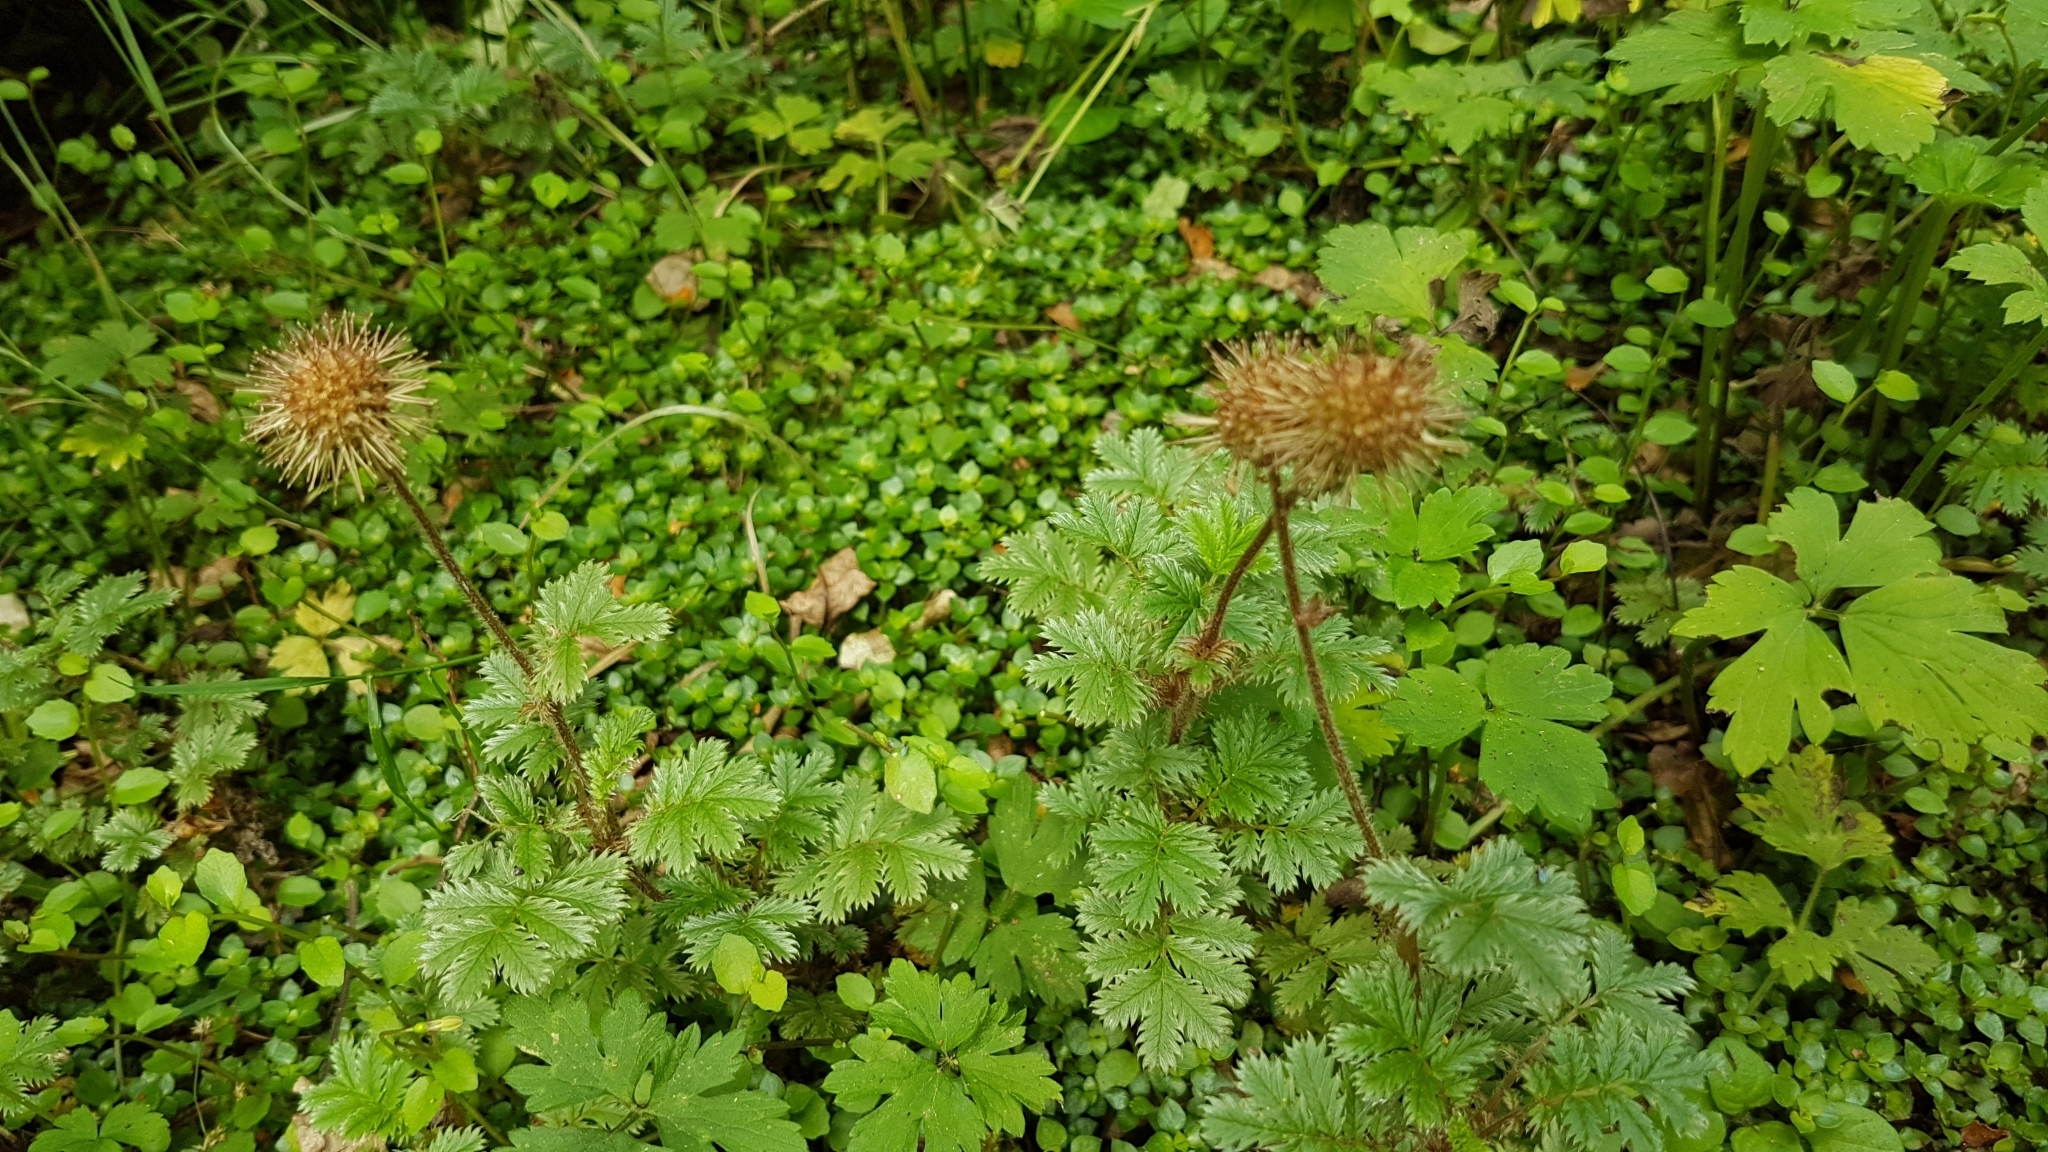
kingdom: Plantae
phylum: Tracheophyta
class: Magnoliopsida
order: Rosales
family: Rosaceae
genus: Acaena
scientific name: Acaena anserinifolia
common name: Bronze pirri-pirri-bur
